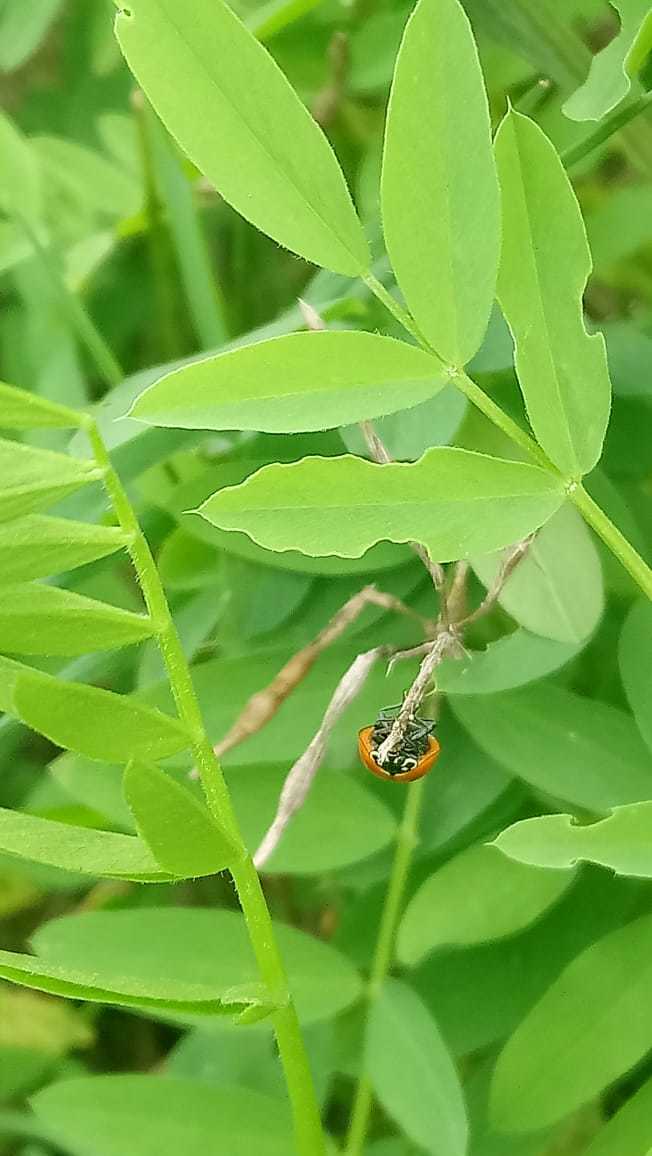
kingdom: Animalia
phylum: Arthropoda
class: Insecta
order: Coleoptera
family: Coccinellidae
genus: Cycloneda
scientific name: Cycloneda sanguinea
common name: Ladybird beetle
